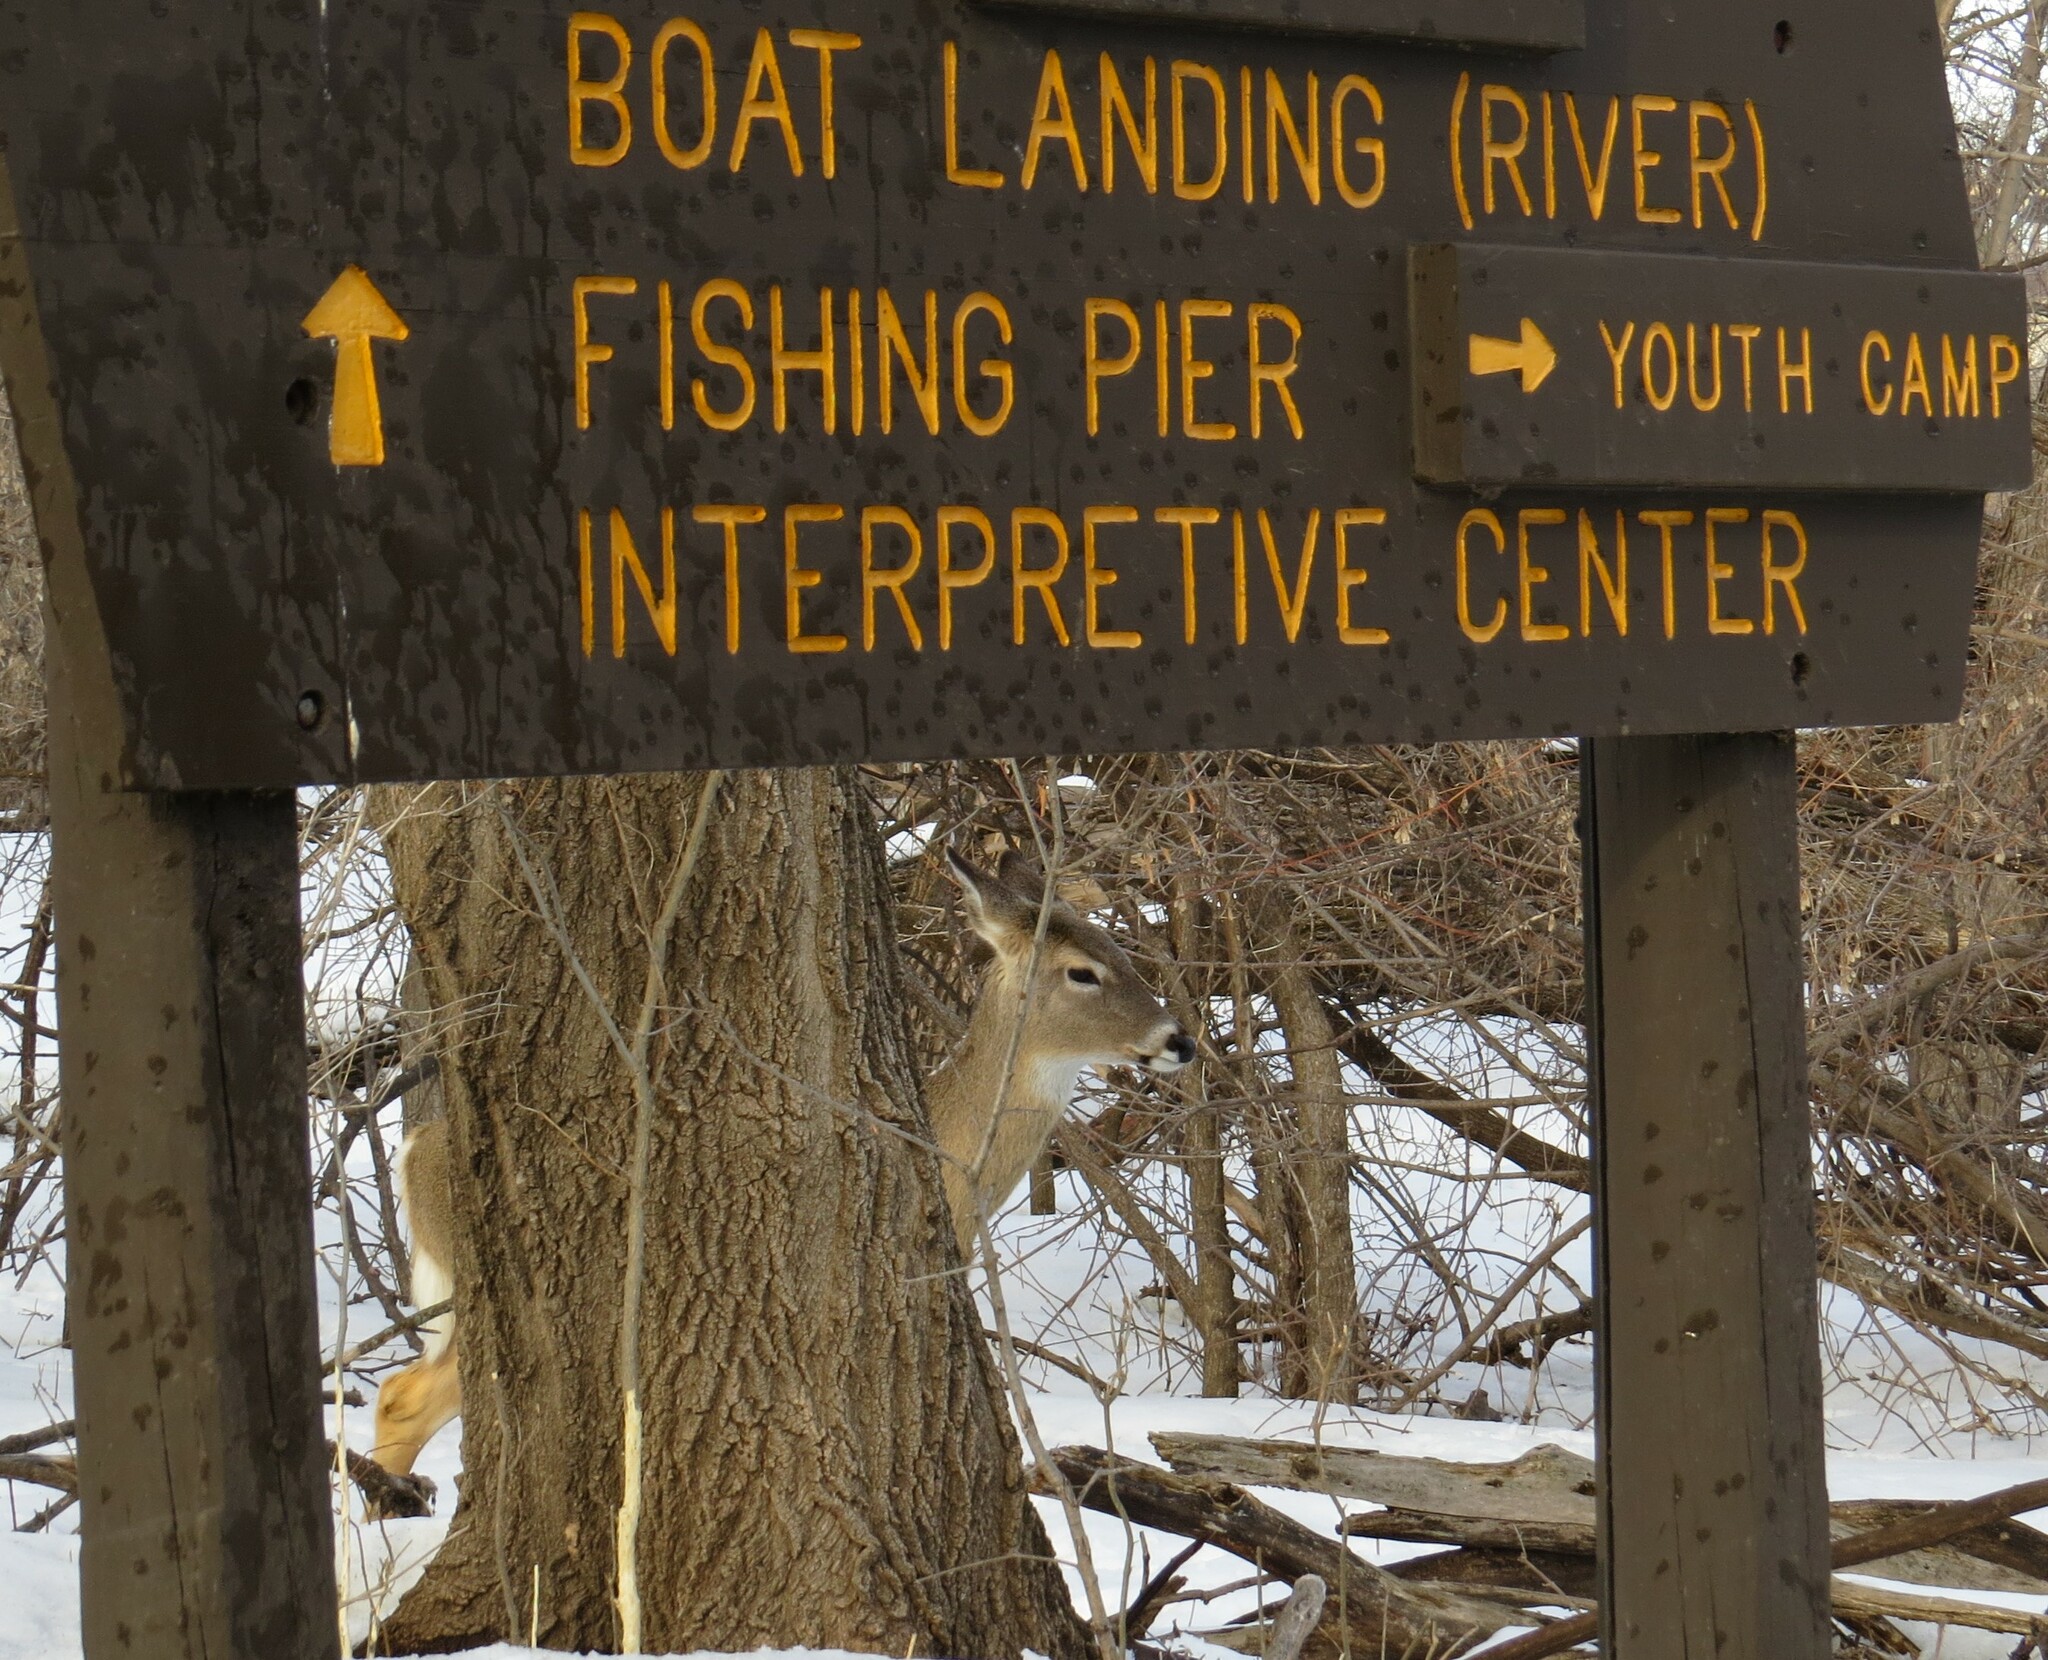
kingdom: Animalia
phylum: Chordata
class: Mammalia
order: Artiodactyla
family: Cervidae
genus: Odocoileus
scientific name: Odocoileus virginianus
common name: White-tailed deer
